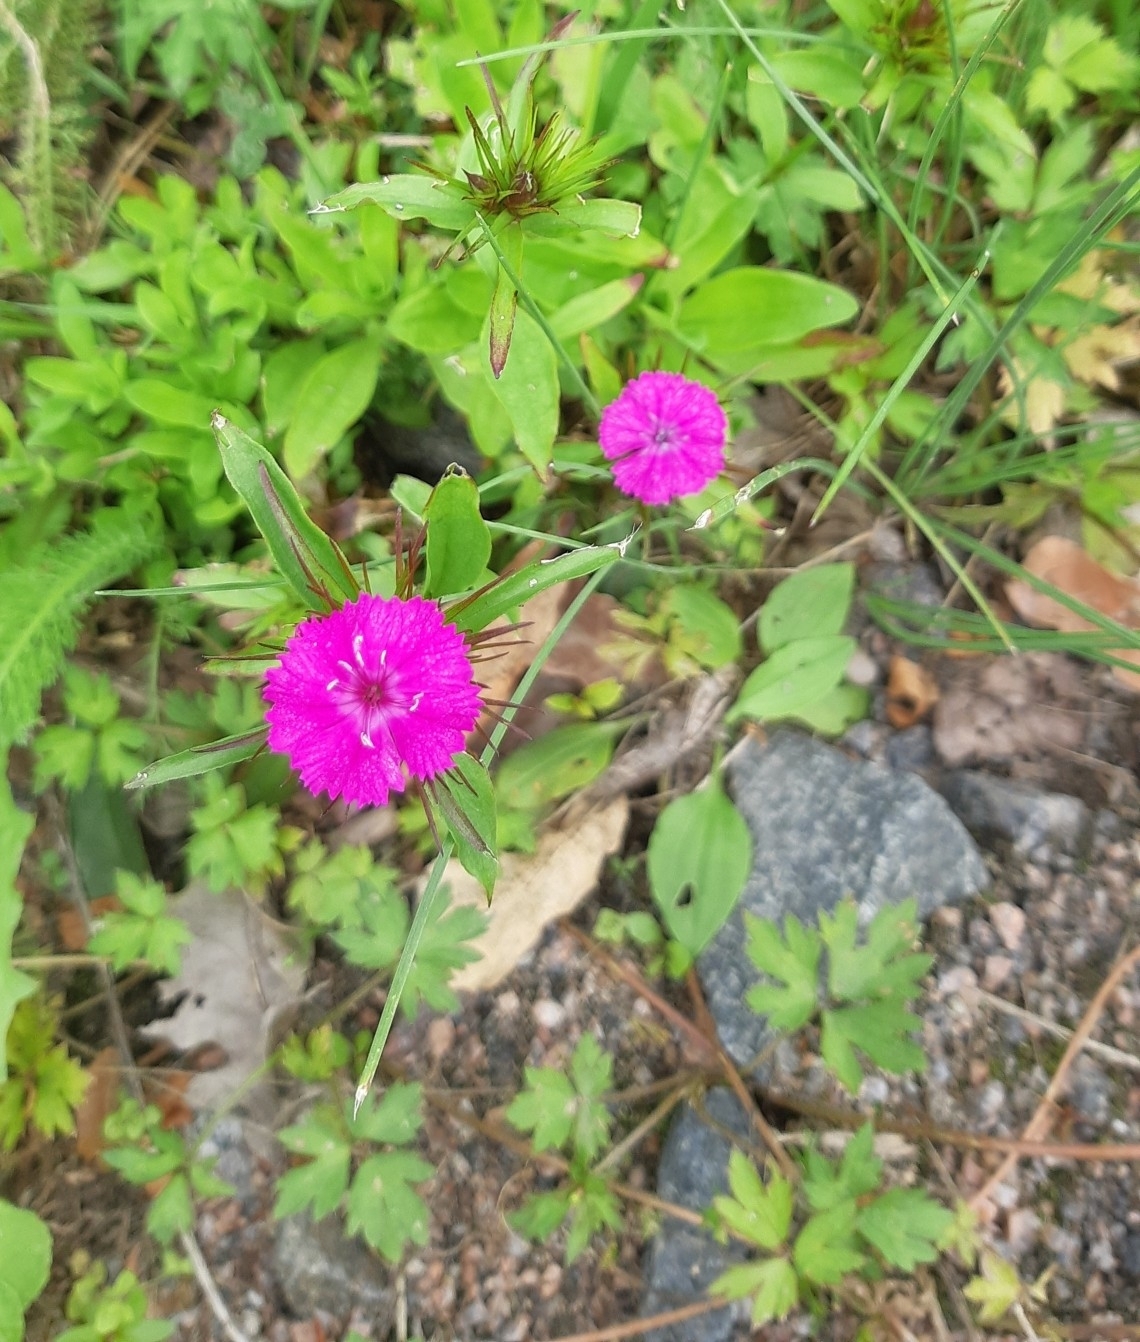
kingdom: Plantae
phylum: Tracheophyta
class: Magnoliopsida
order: Caryophyllales
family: Caryophyllaceae
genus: Dianthus
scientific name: Dianthus barbatus
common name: Sweet-william
